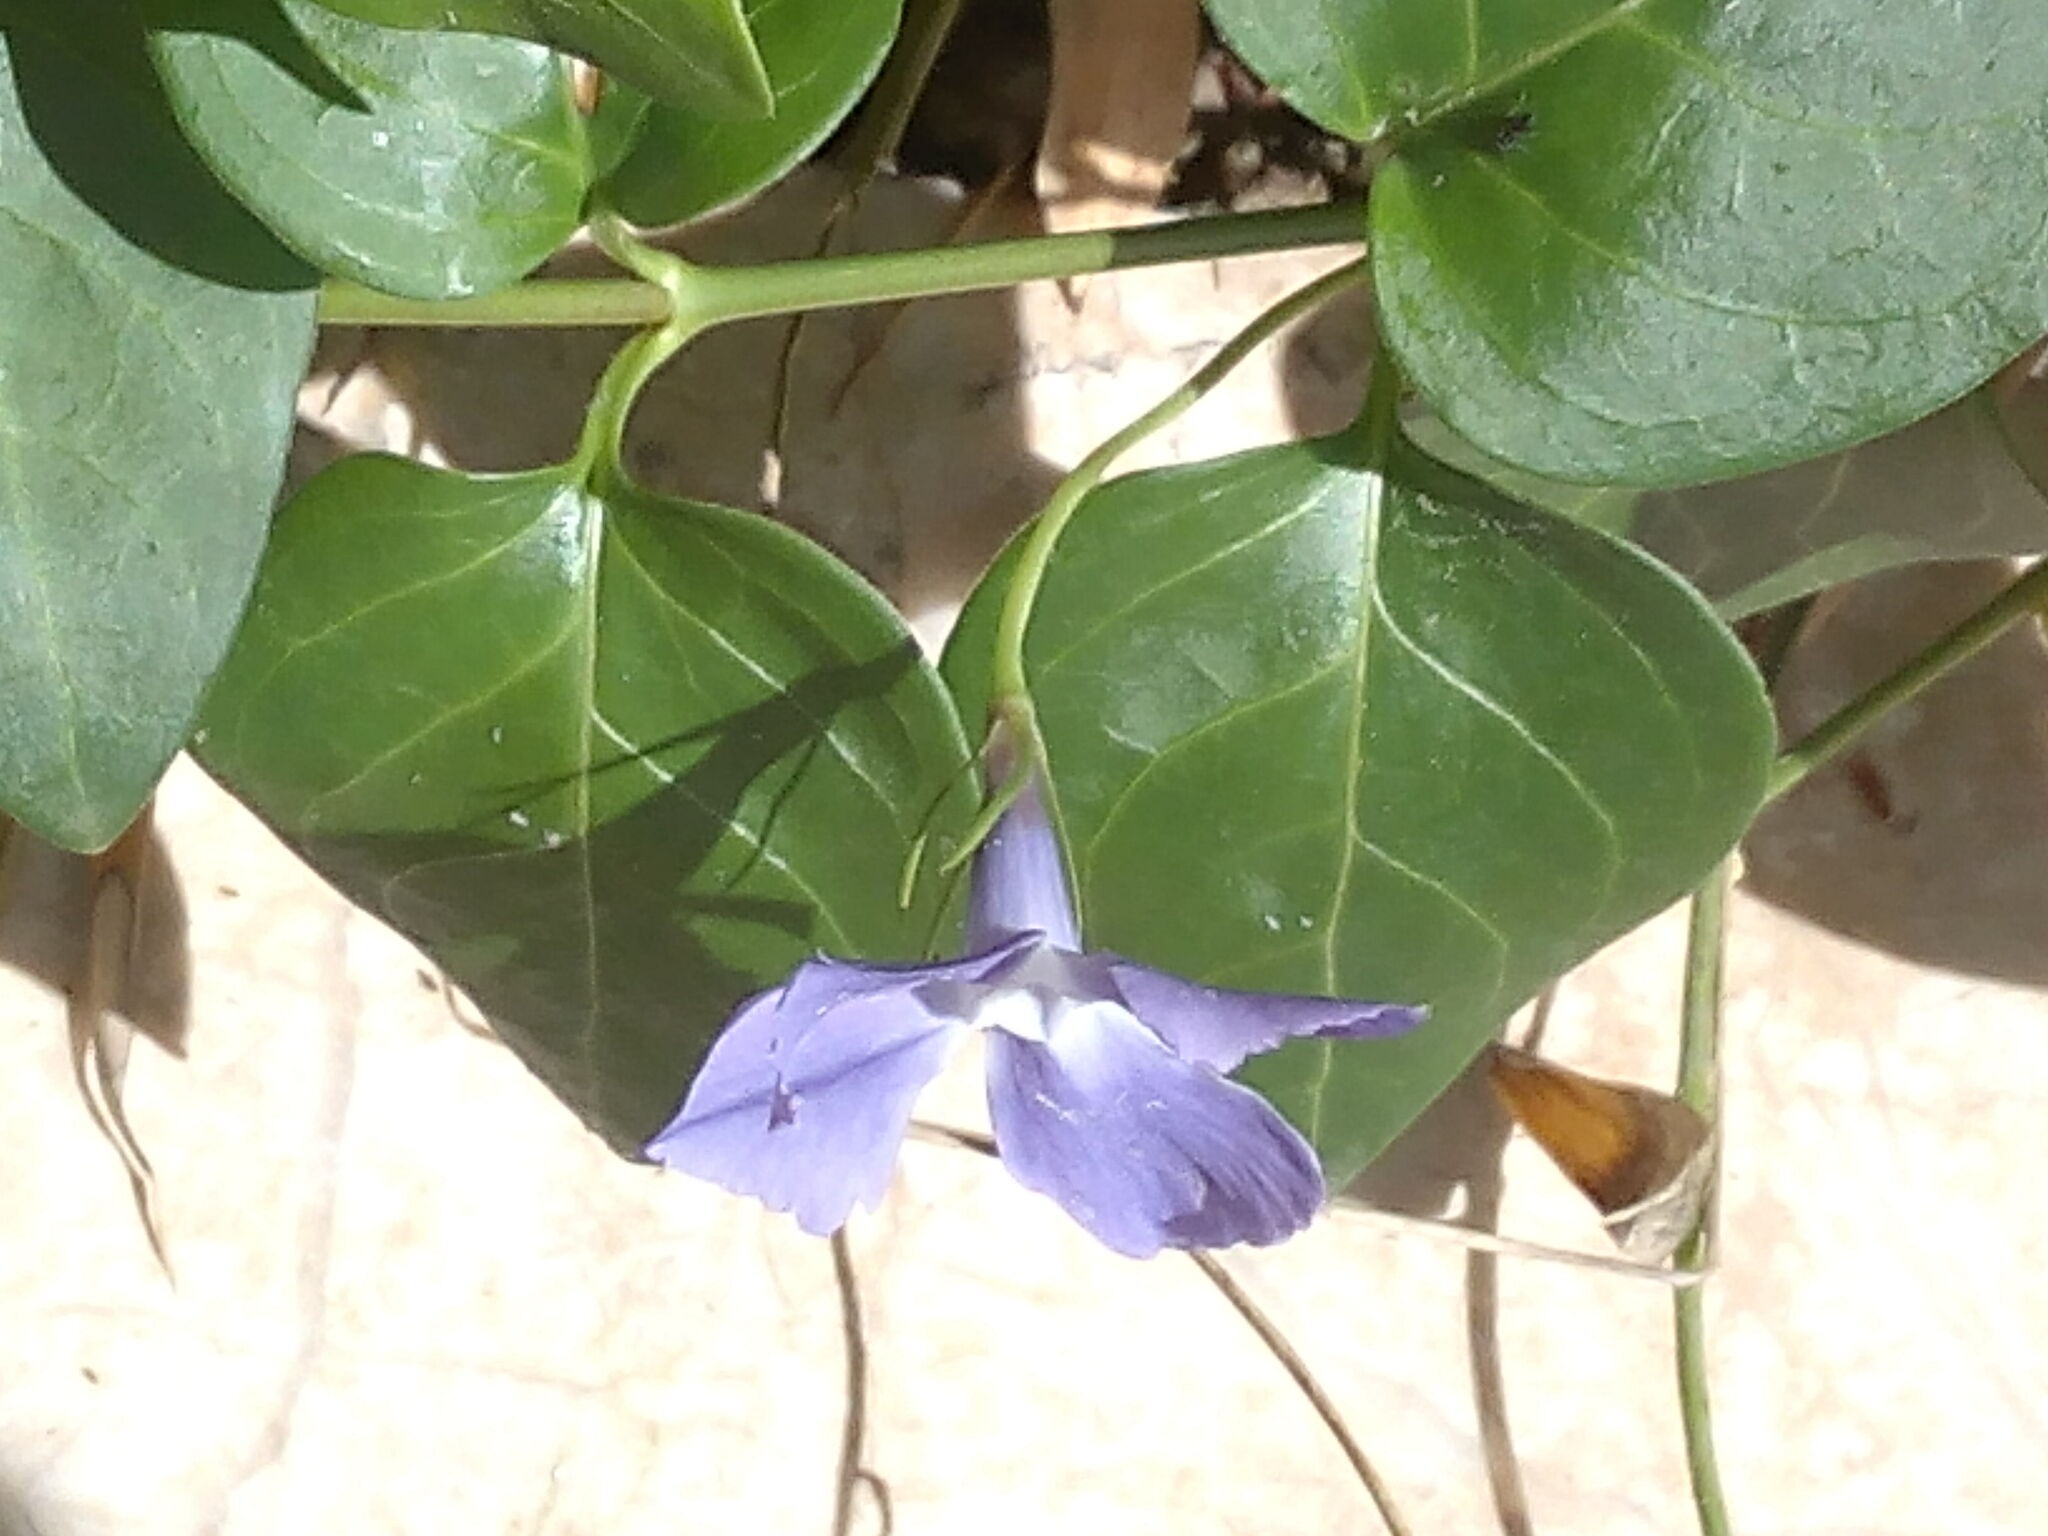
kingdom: Plantae
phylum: Tracheophyta
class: Magnoliopsida
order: Gentianales
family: Apocynaceae
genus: Vinca
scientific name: Vinca major
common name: Greater periwinkle
